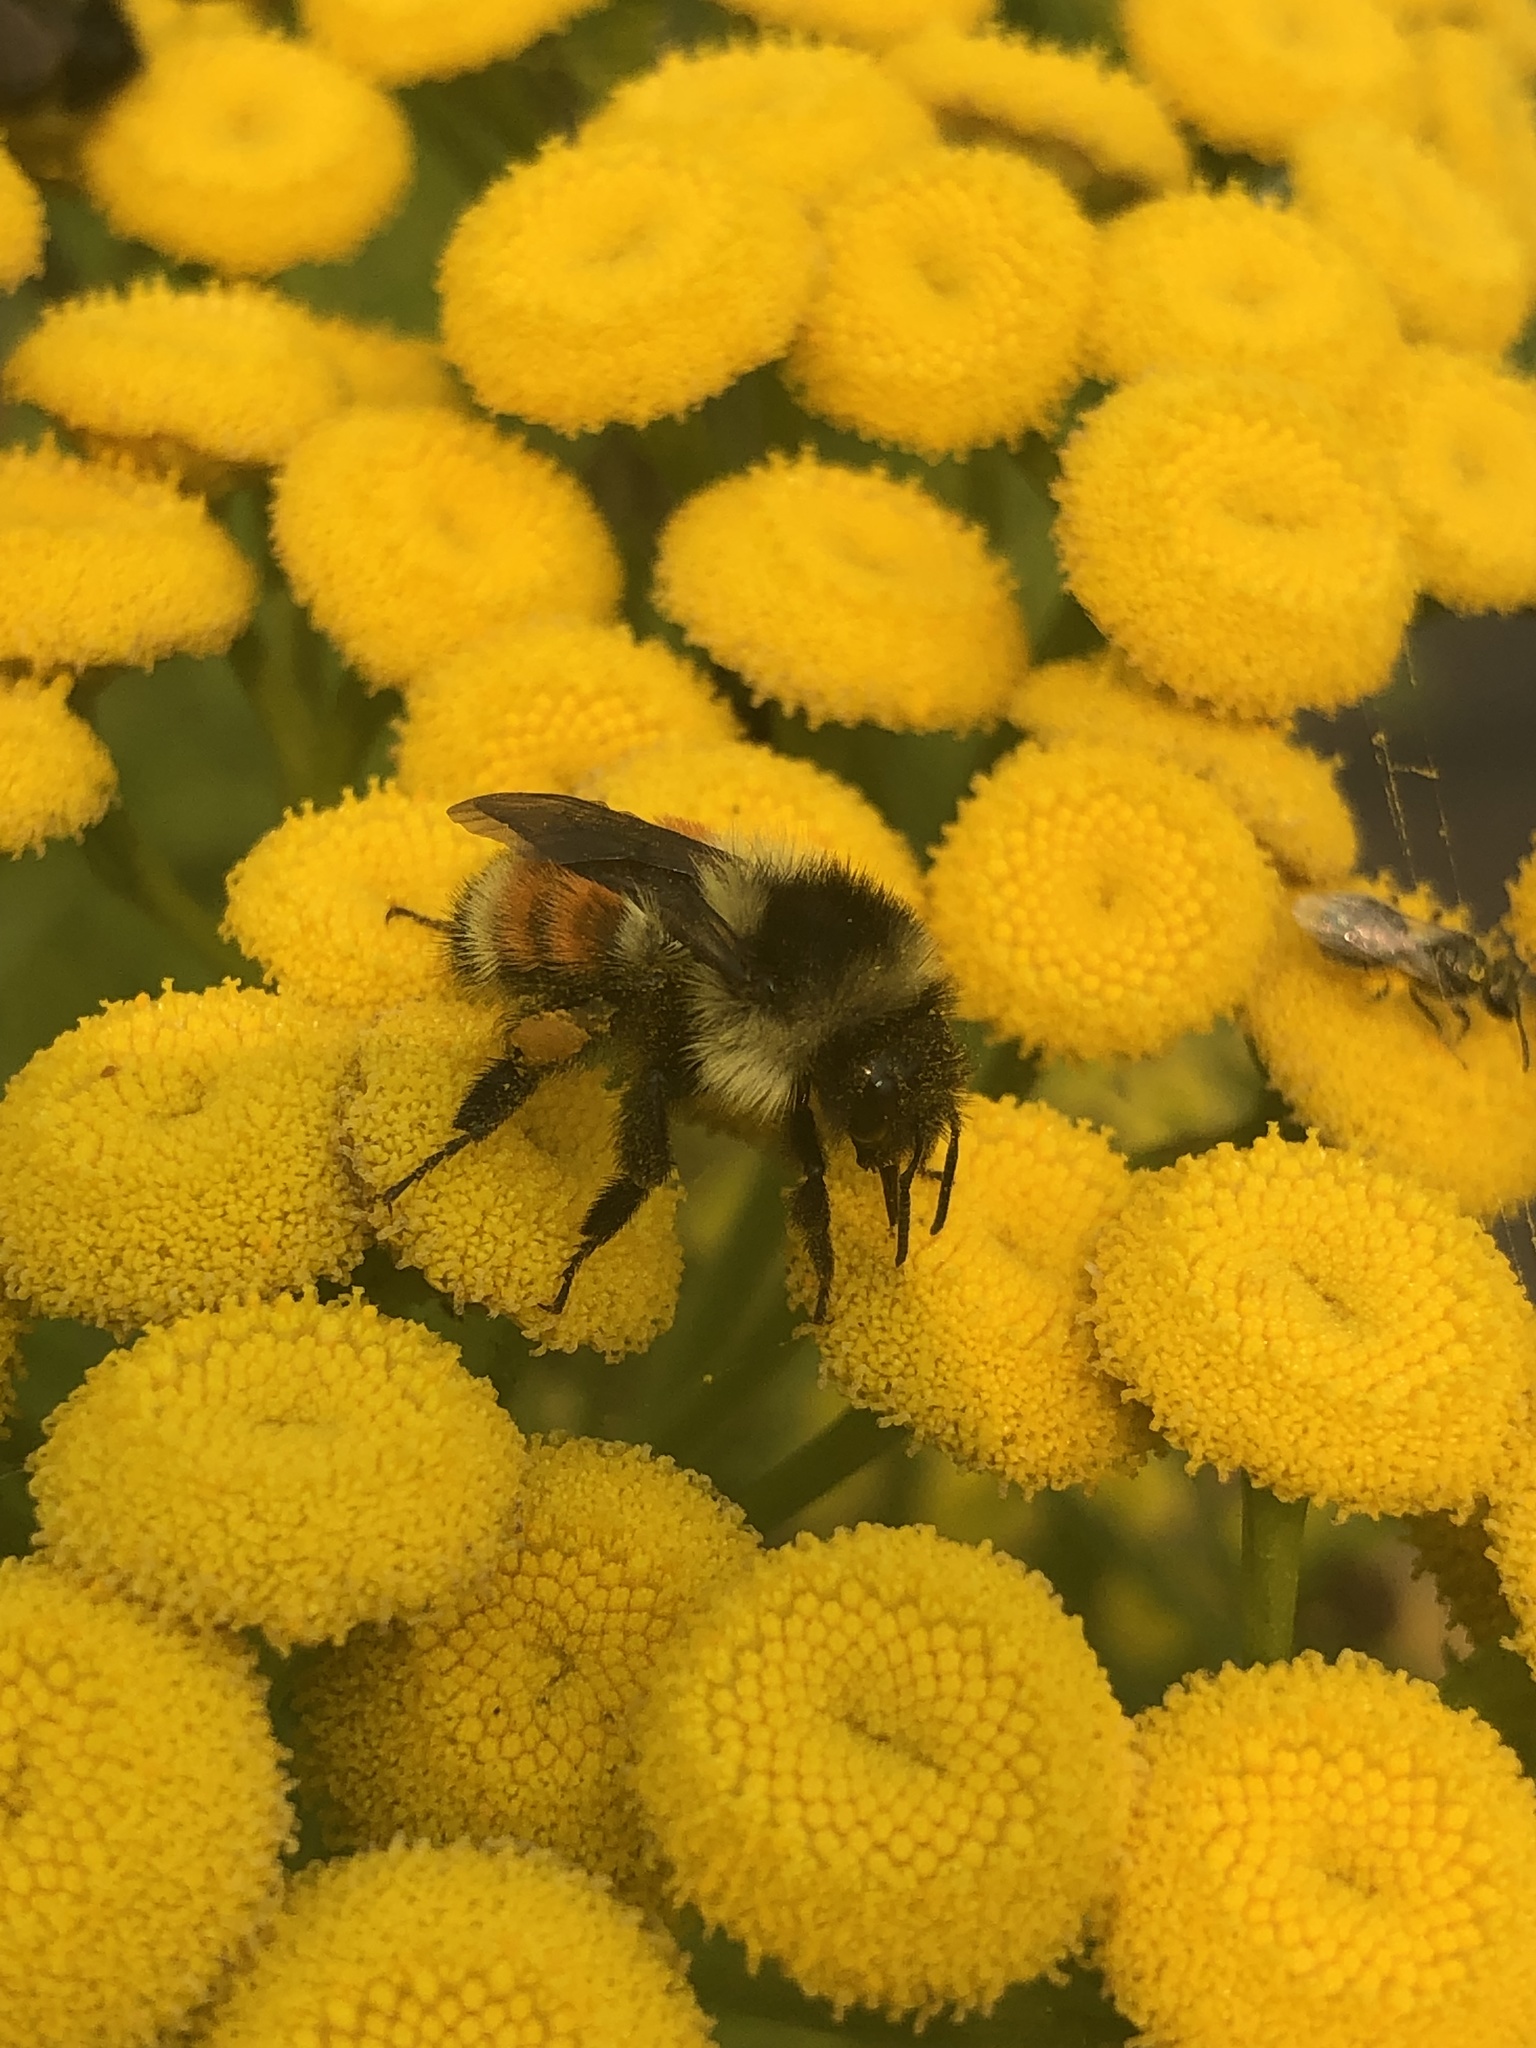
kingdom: Animalia
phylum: Arthropoda
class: Insecta
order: Hymenoptera
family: Apidae
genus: Bombus
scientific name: Bombus ternarius
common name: Tri-colored bumble bee
